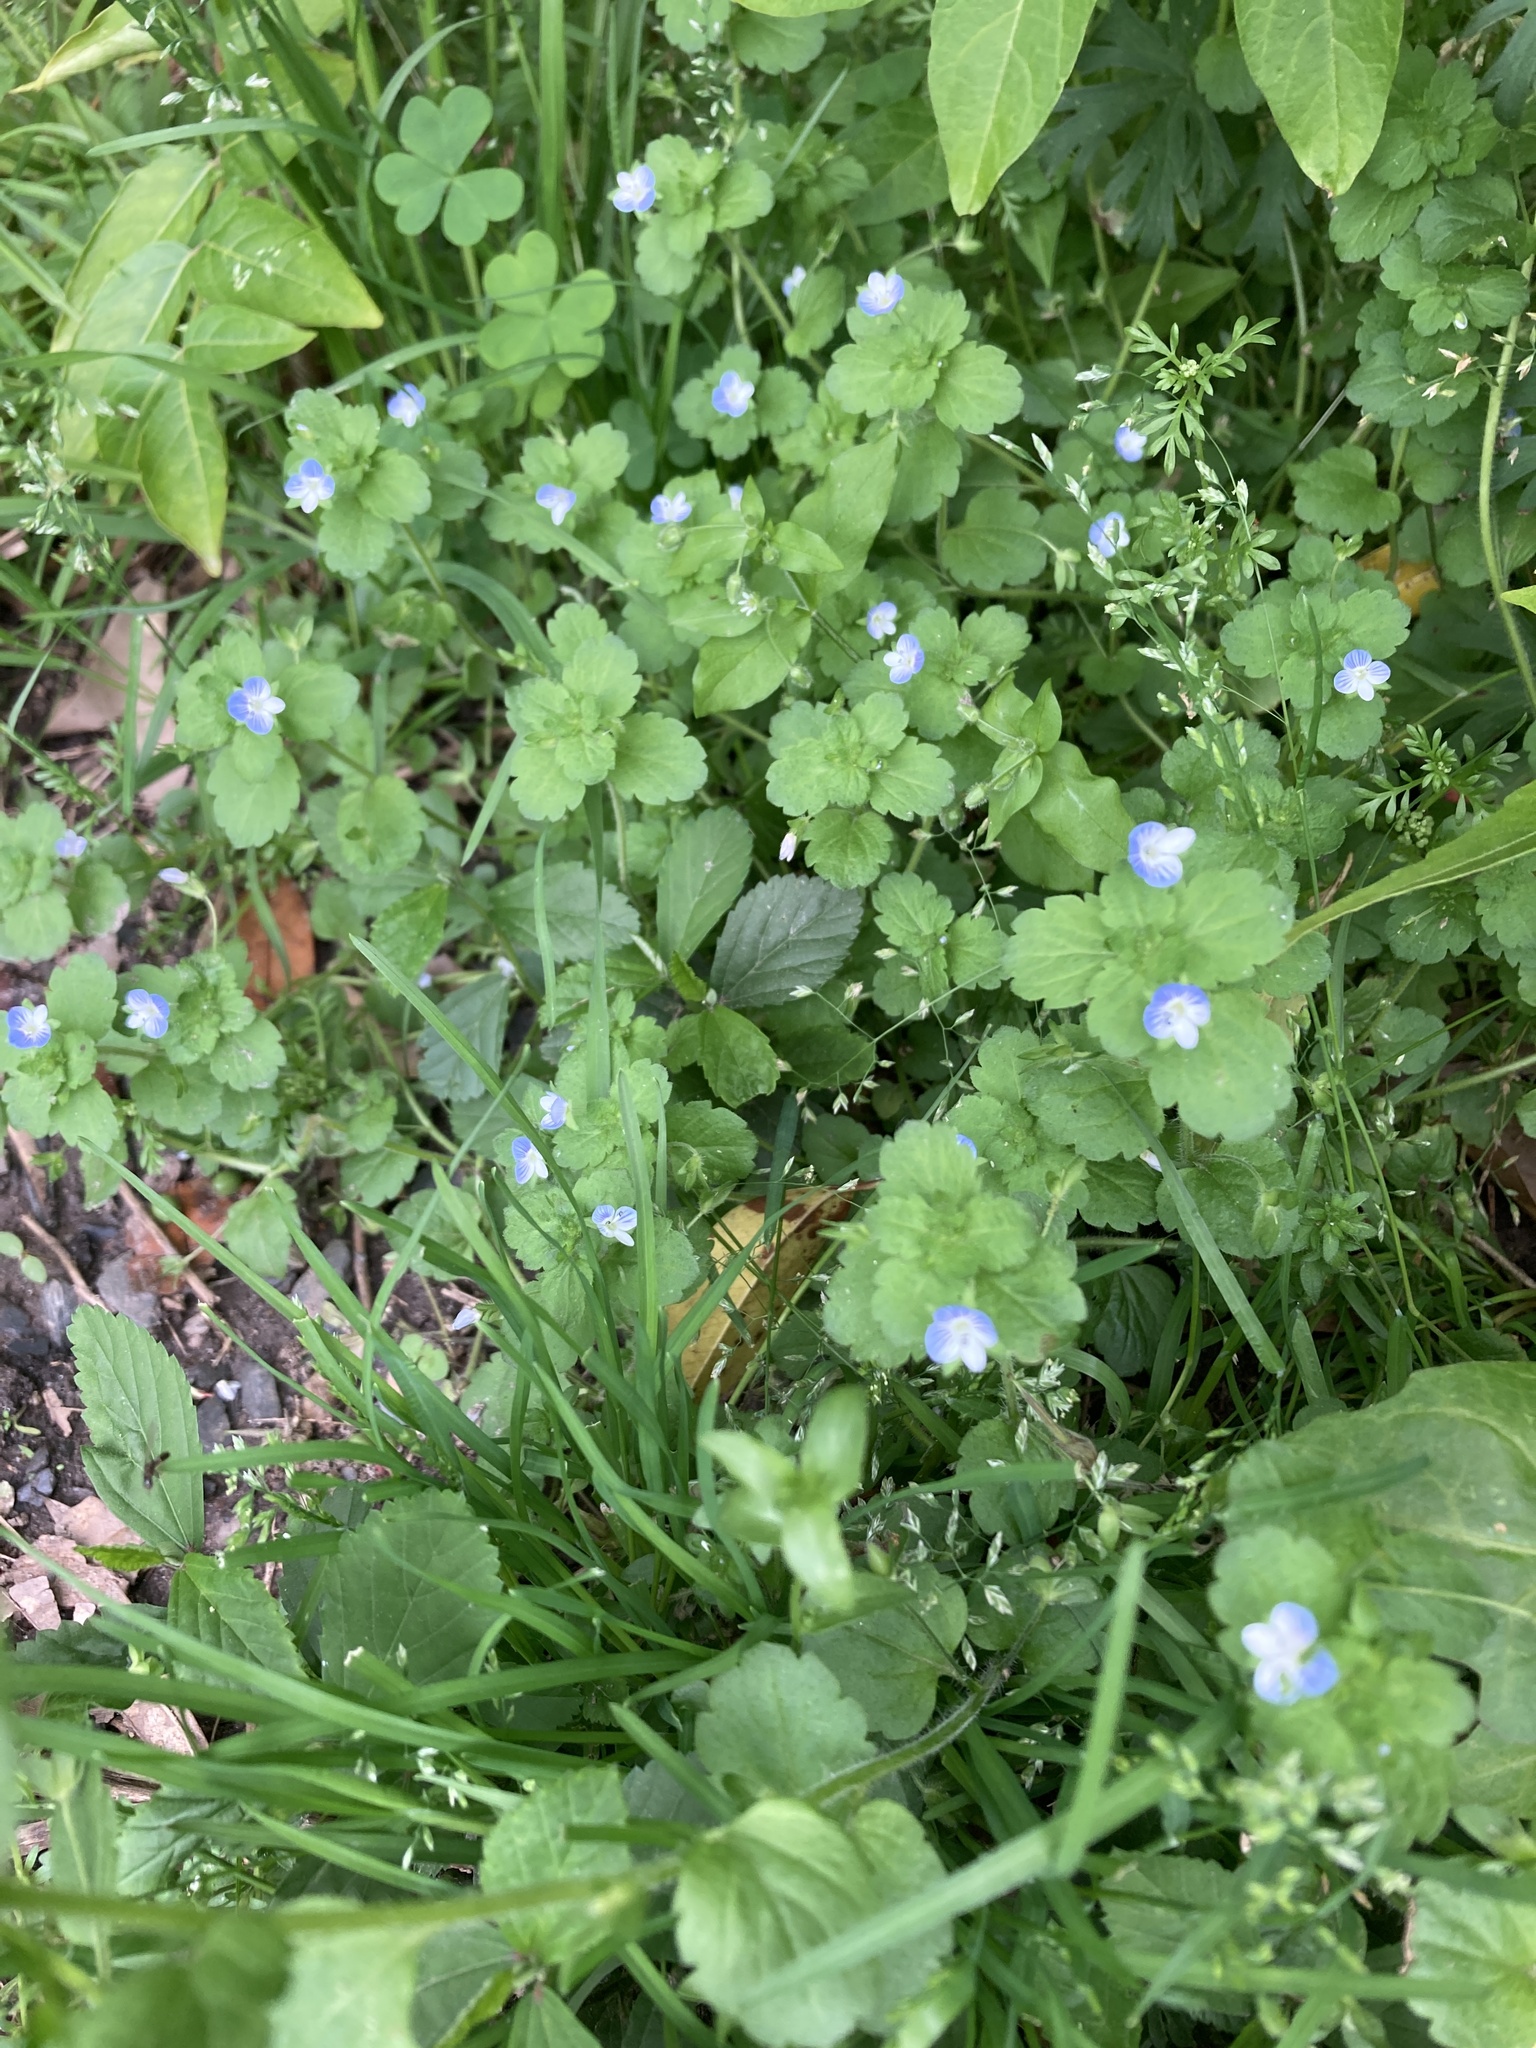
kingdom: Plantae
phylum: Tracheophyta
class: Magnoliopsida
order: Lamiales
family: Plantaginaceae
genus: Veronica
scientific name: Veronica persica
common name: Common field-speedwell
